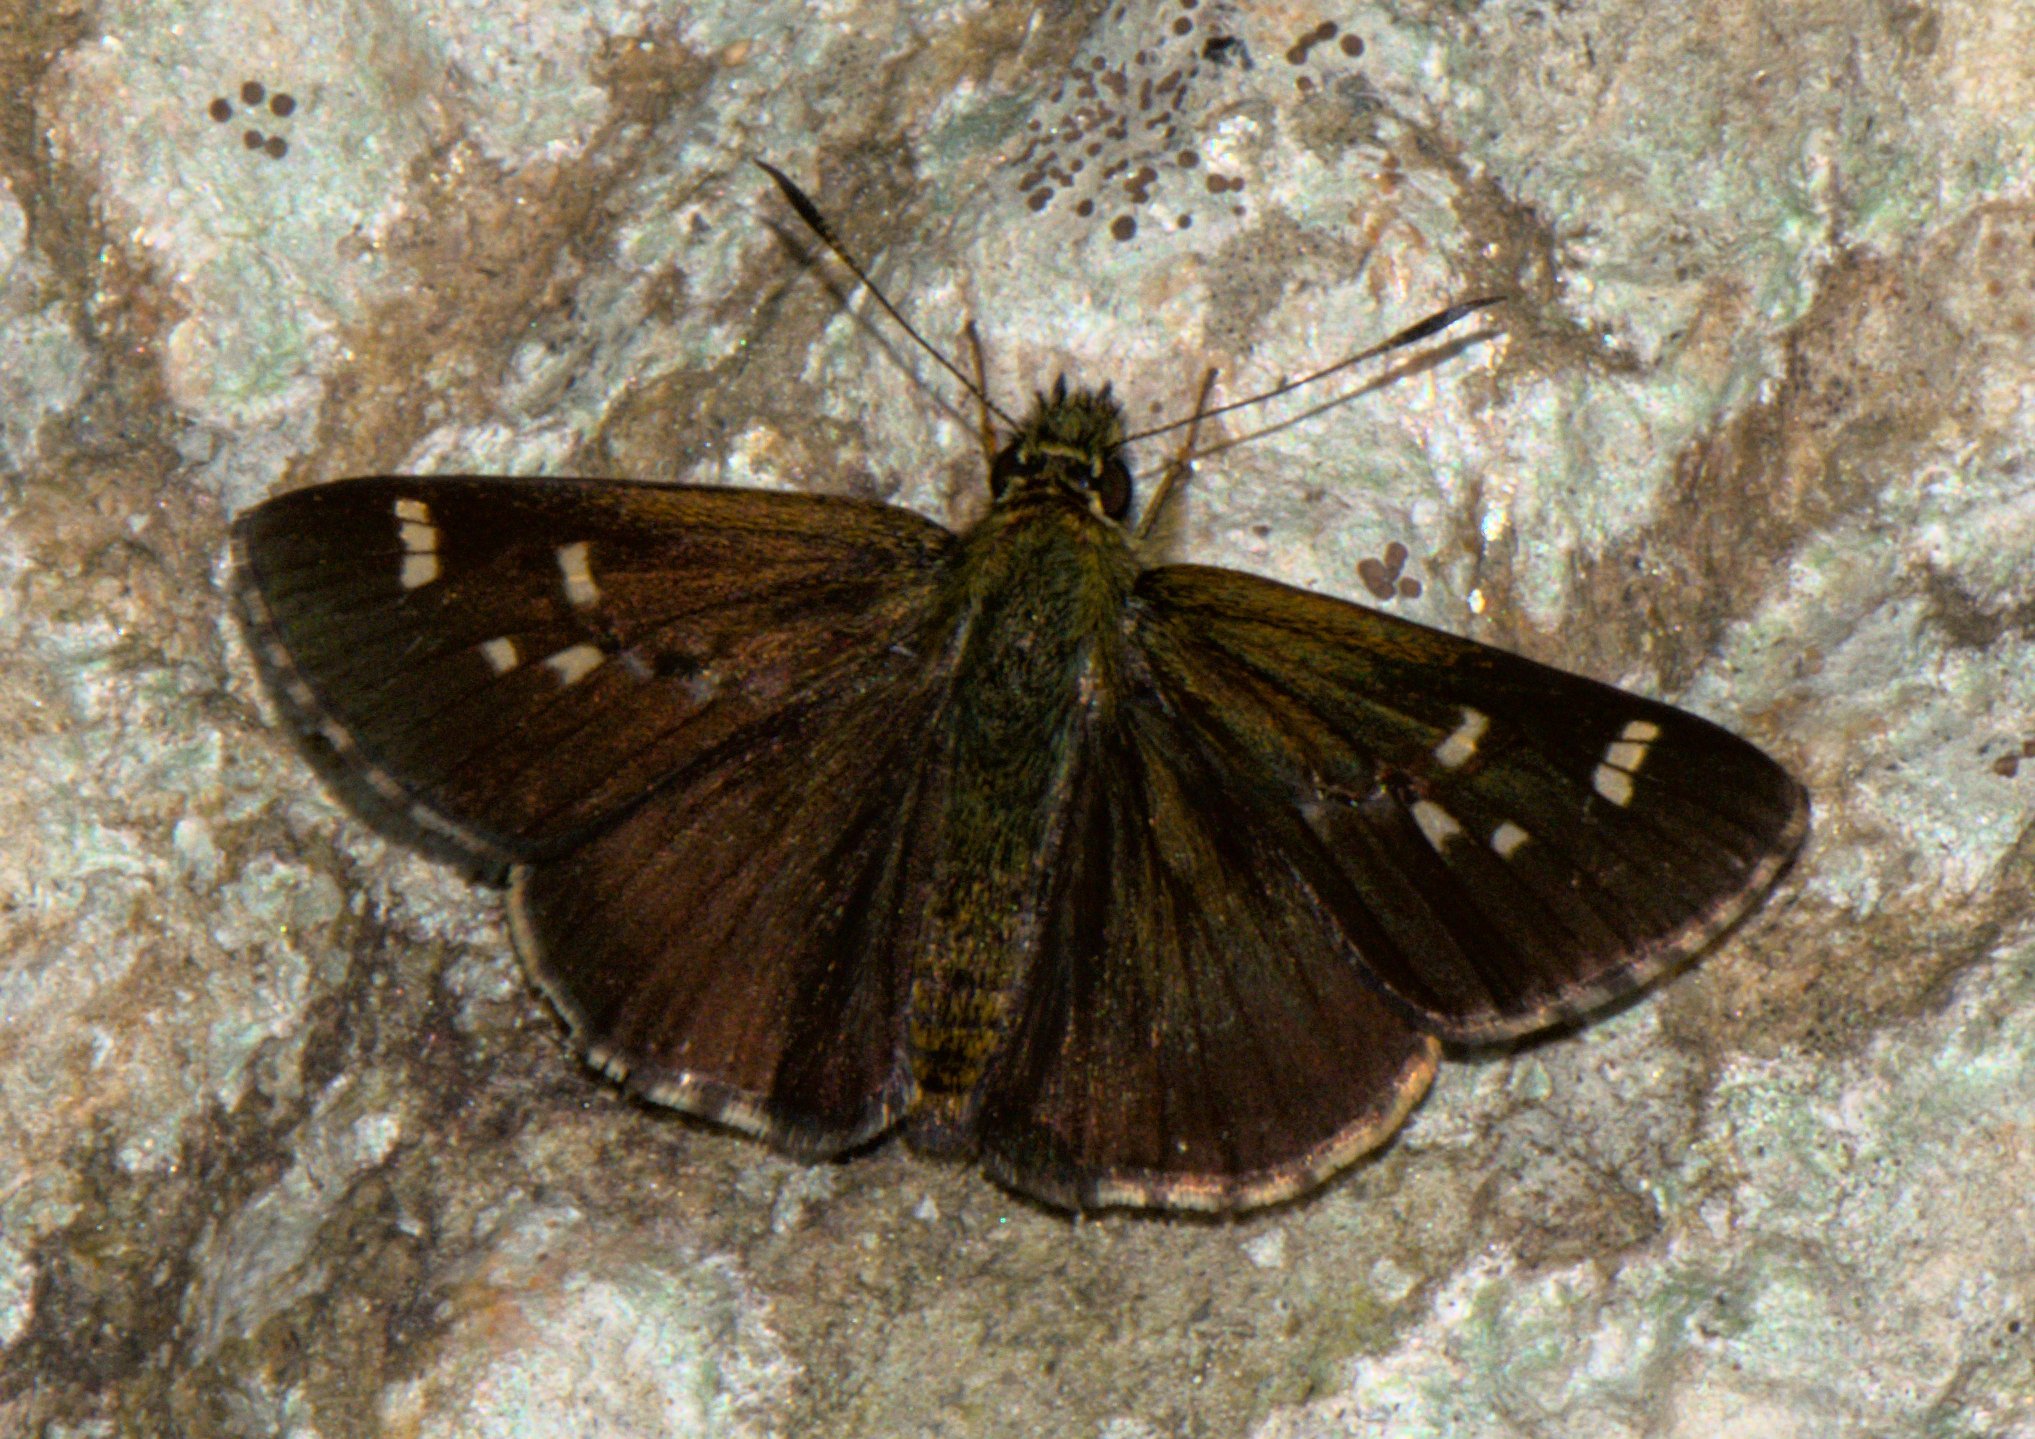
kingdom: Animalia
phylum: Arthropoda
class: Insecta
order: Lepidoptera
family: Hesperiidae
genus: Sovia
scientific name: Sovia separata
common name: Chequered ace
